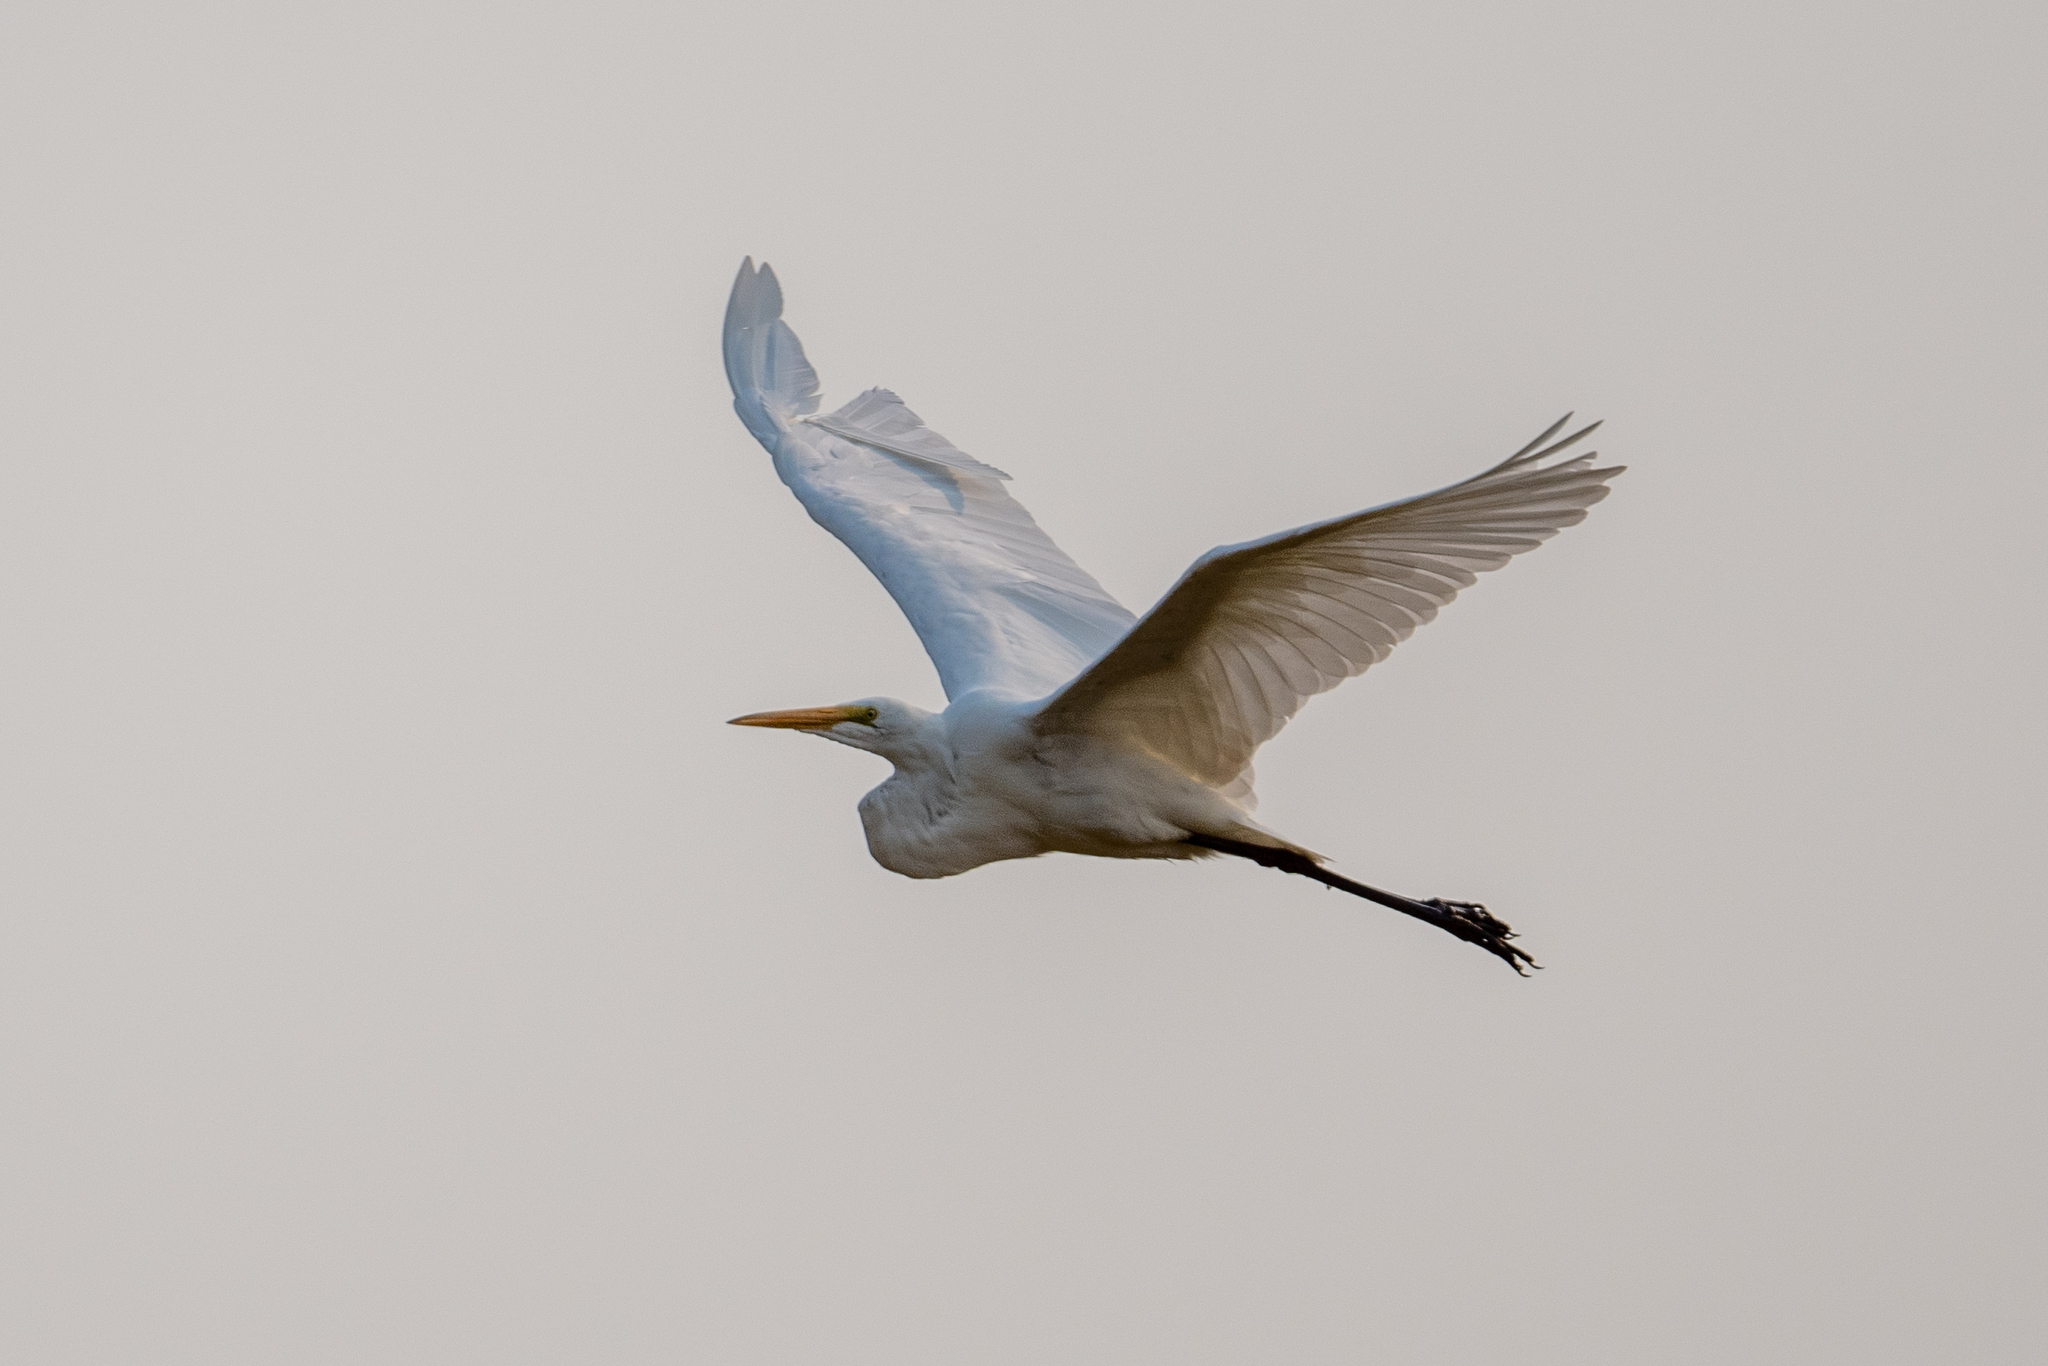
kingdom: Animalia
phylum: Chordata
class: Aves
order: Pelecaniformes
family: Ardeidae
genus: Ardea
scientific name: Ardea alba
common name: Great egret
